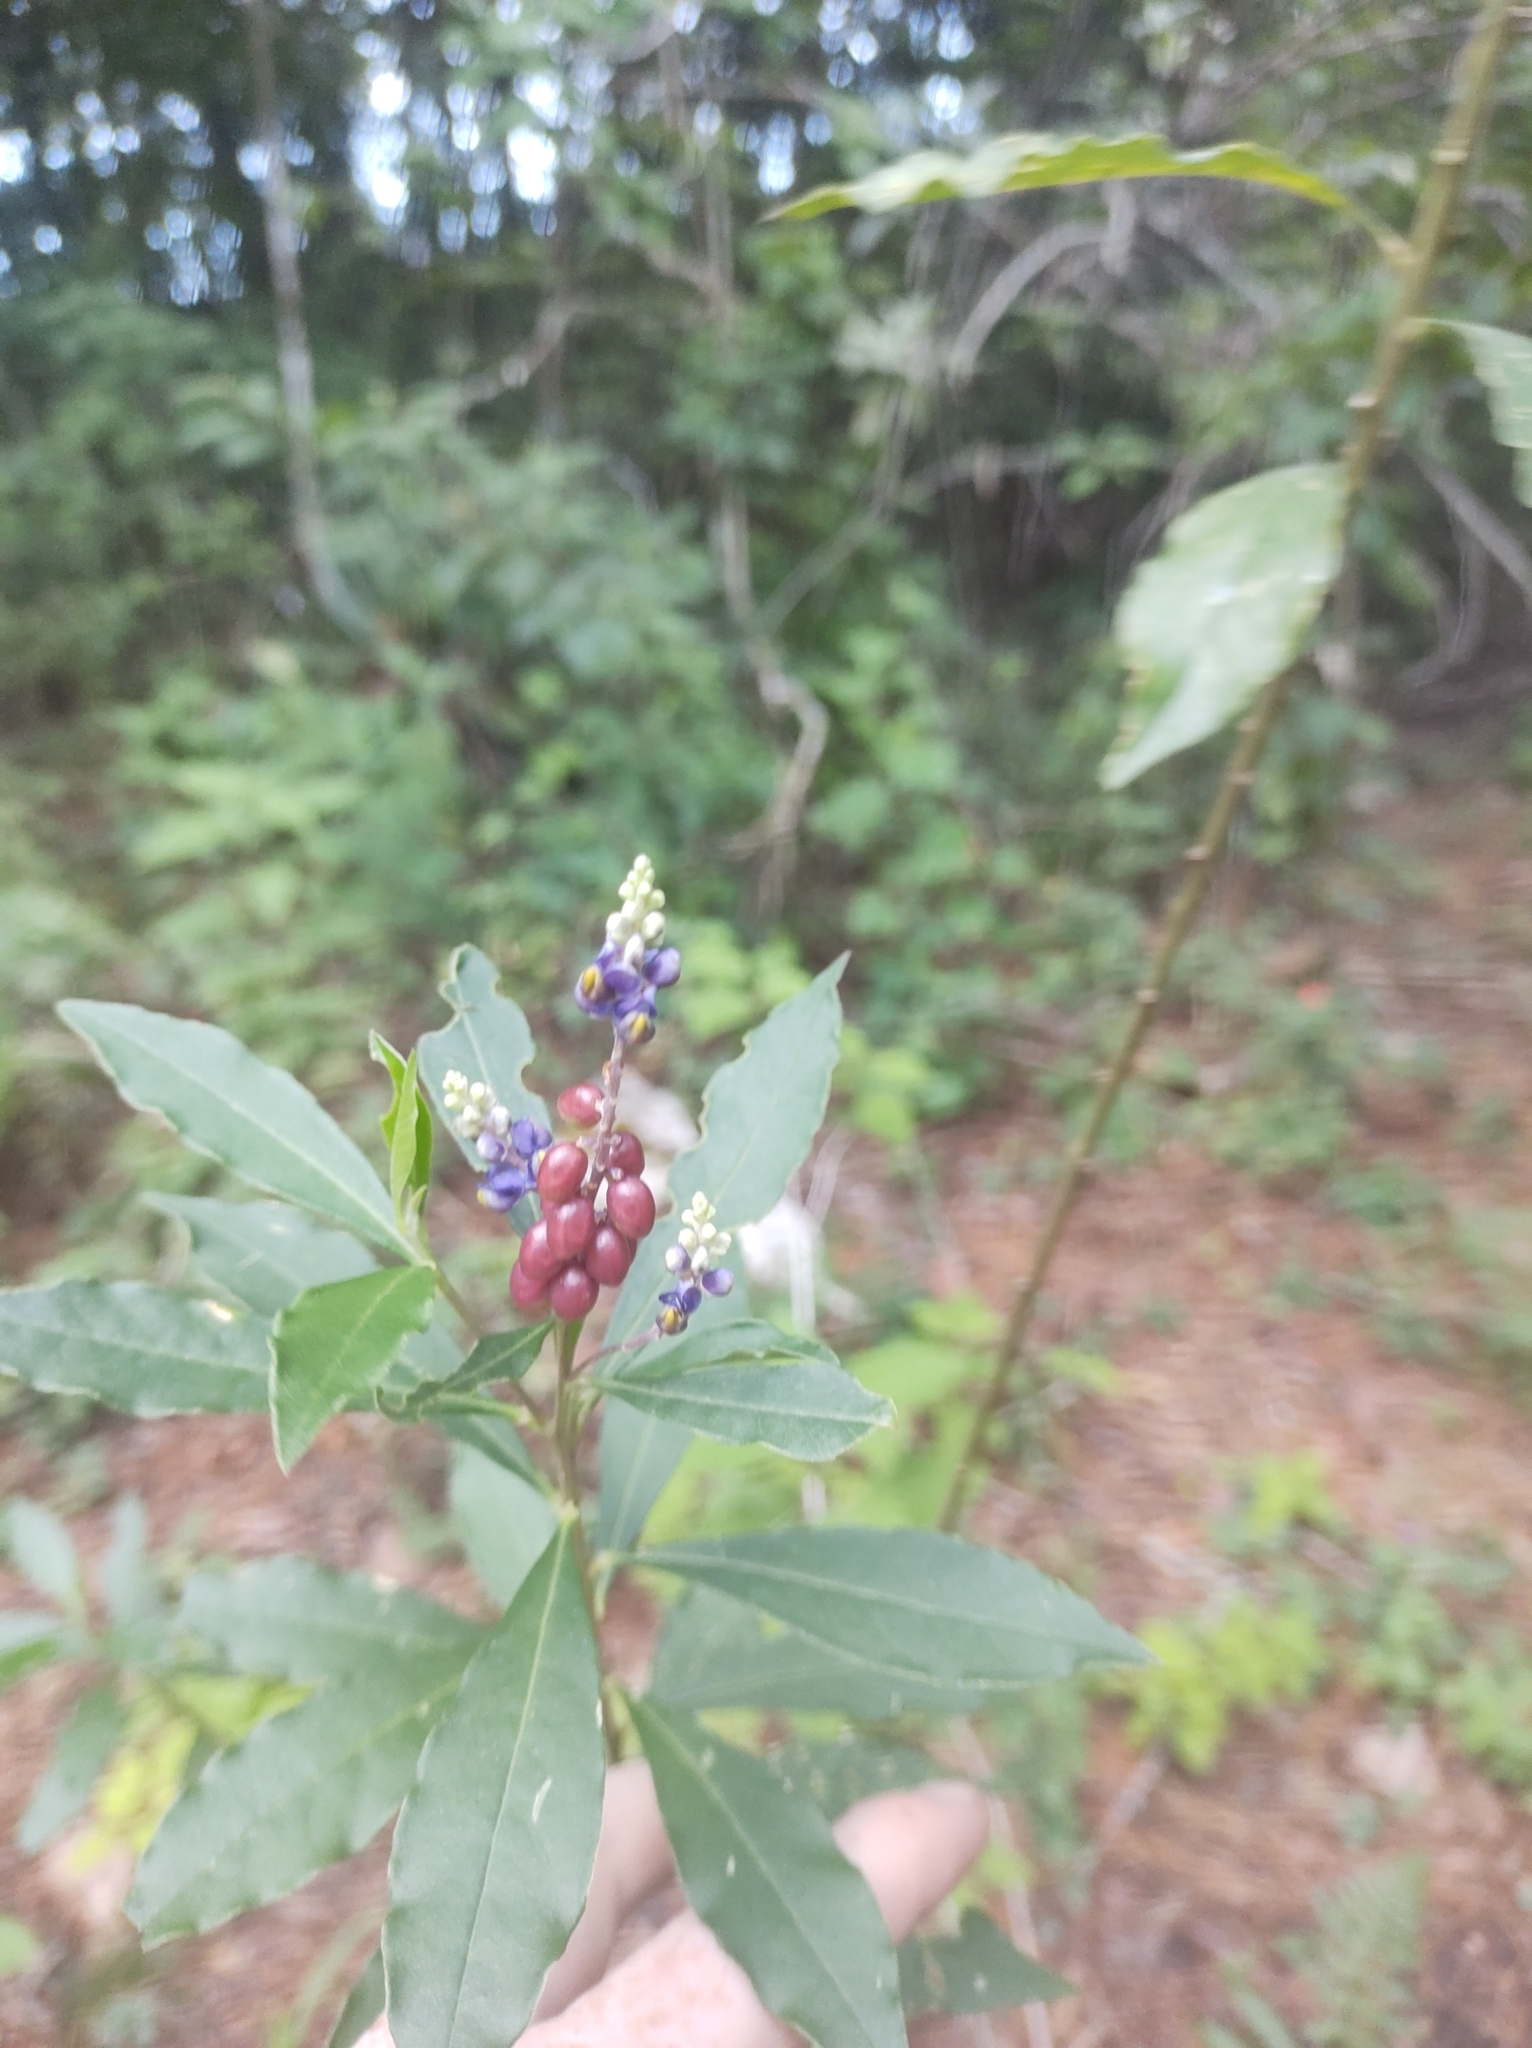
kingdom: Plantae
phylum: Tracheophyta
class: Magnoliopsida
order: Fabales
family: Polygalaceae
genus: Monnina
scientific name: Monnina xalapensis
